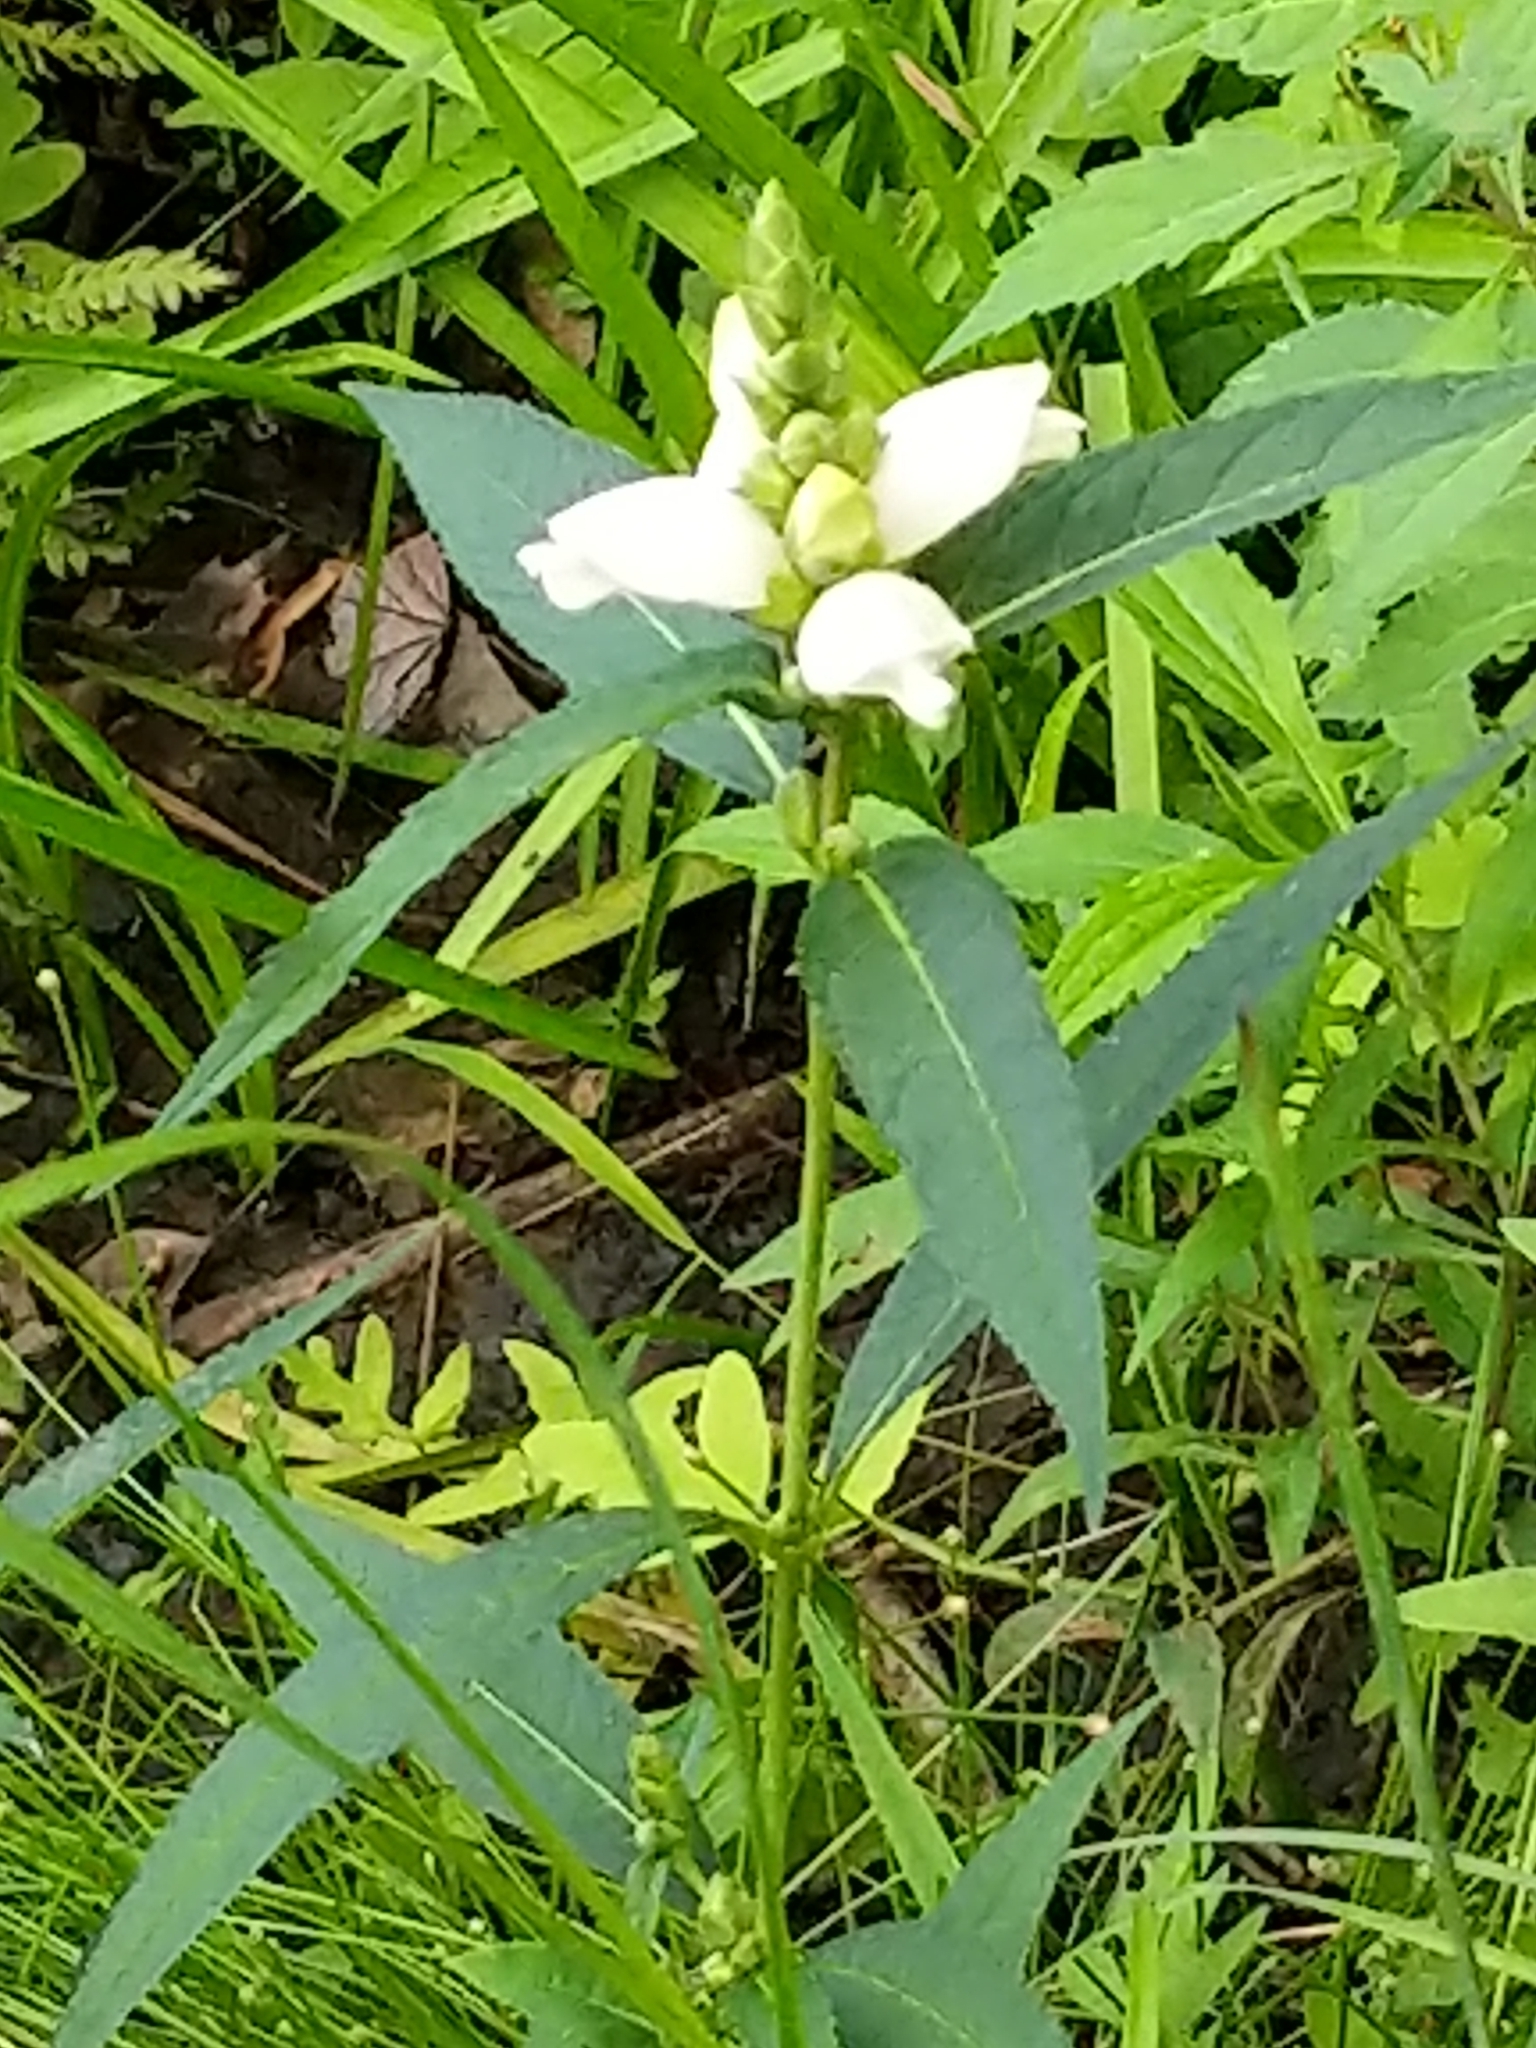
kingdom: Plantae
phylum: Tracheophyta
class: Magnoliopsida
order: Lamiales
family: Plantaginaceae
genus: Chelone
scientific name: Chelone glabra
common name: Snakehead
